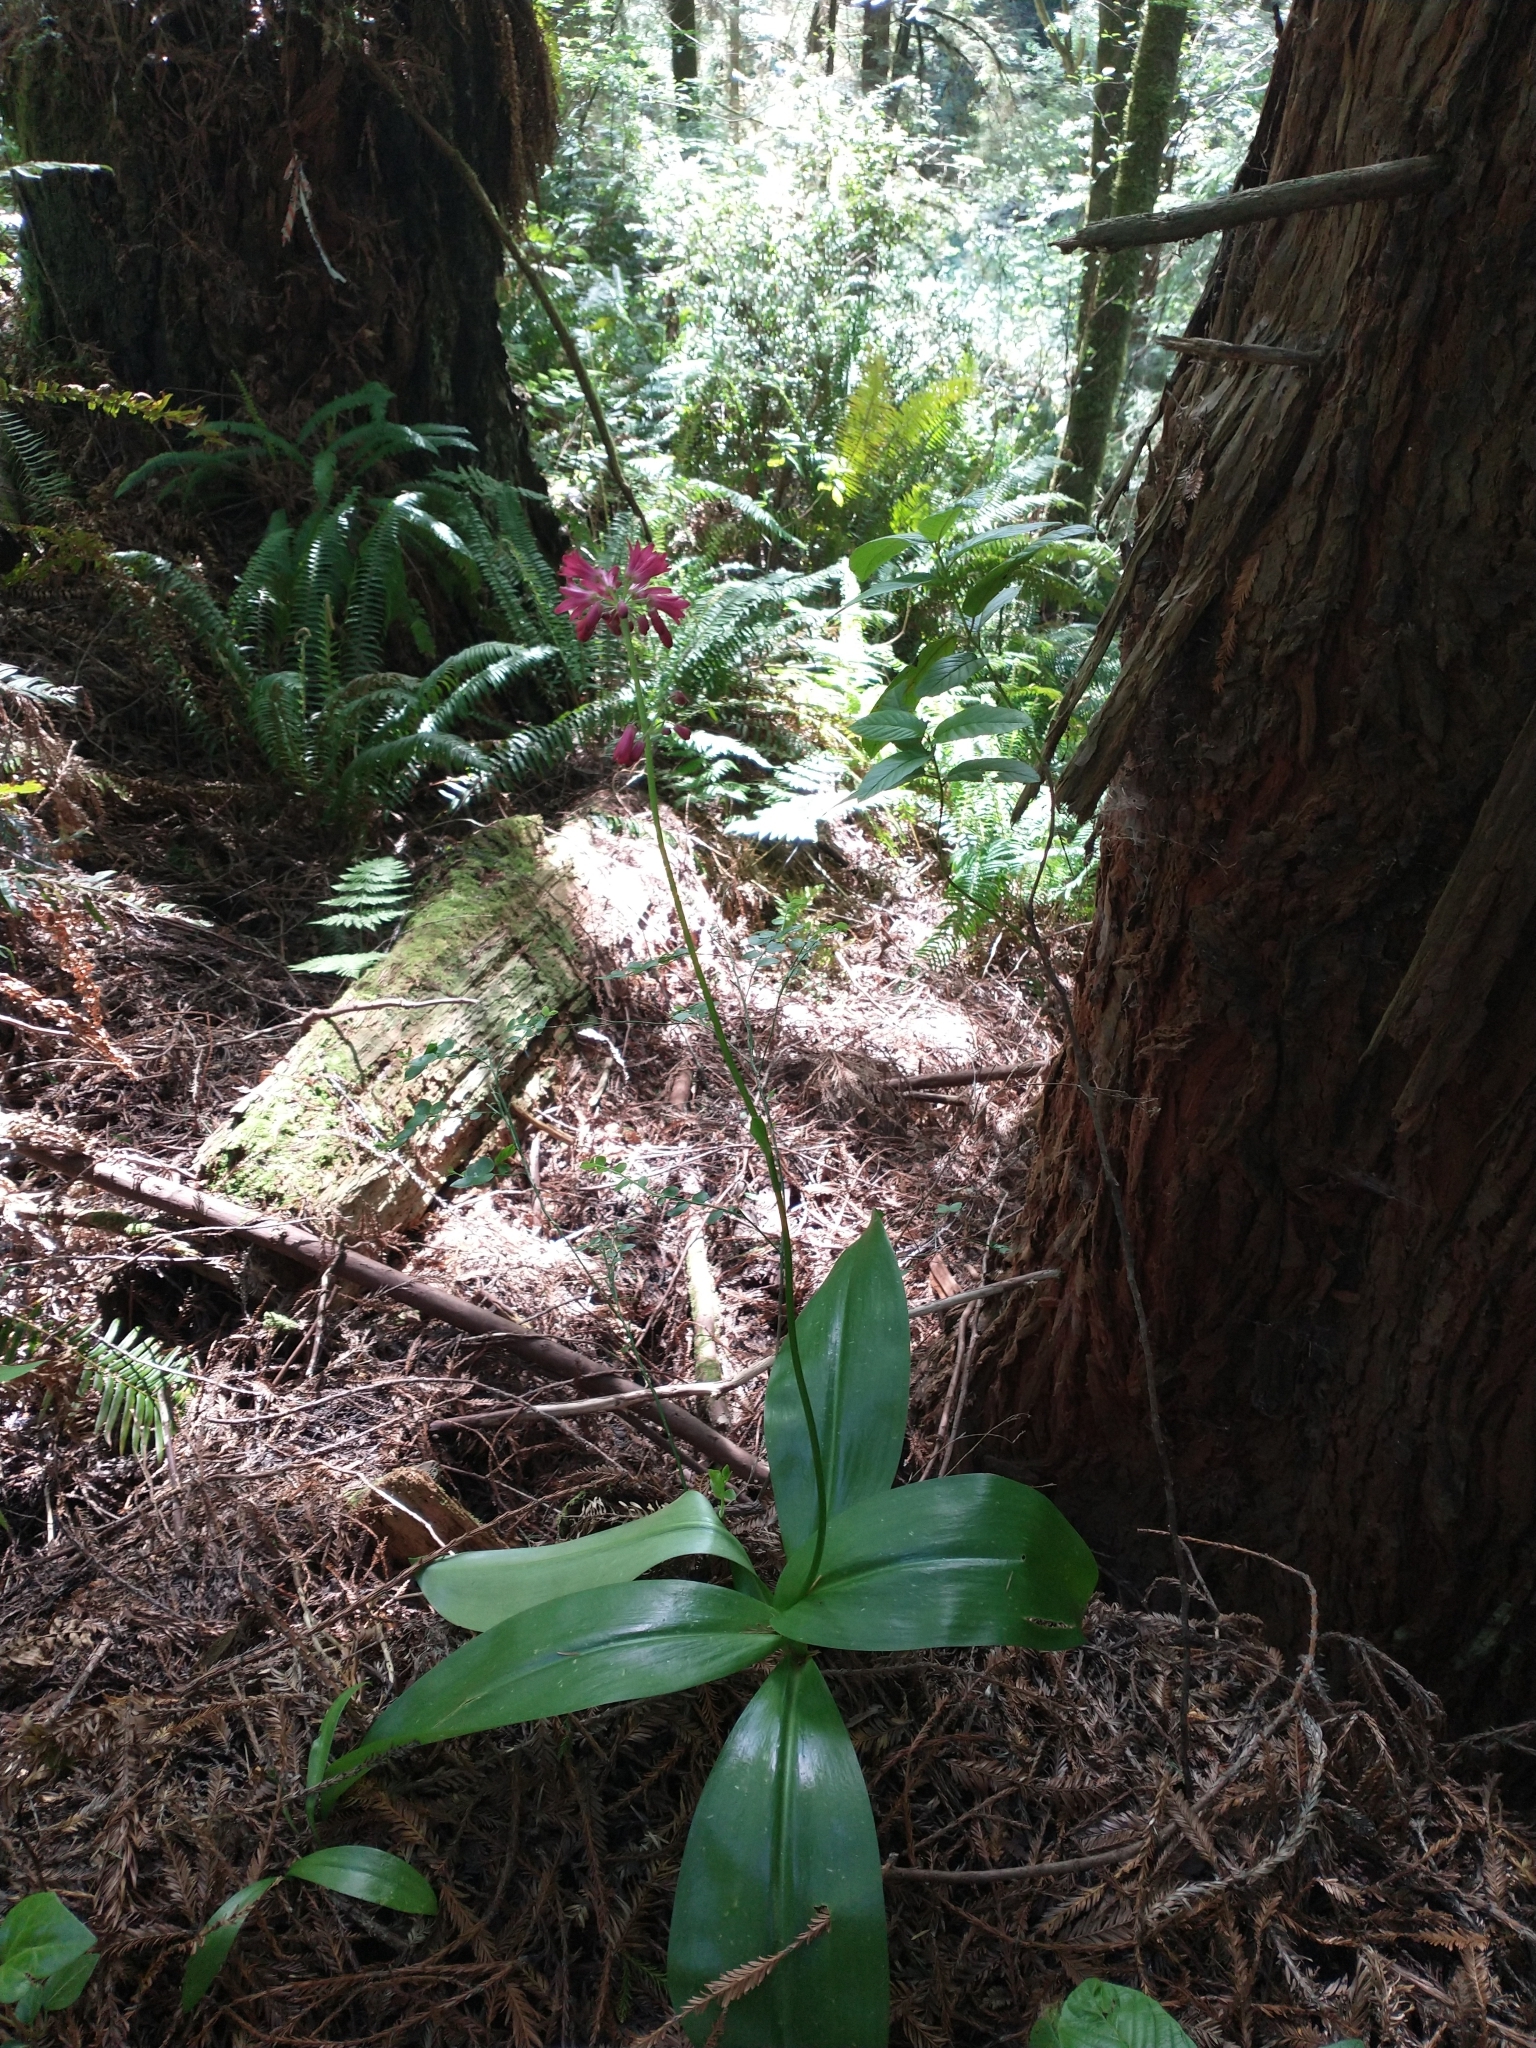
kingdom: Plantae
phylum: Tracheophyta
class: Liliopsida
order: Liliales
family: Liliaceae
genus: Clintonia
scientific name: Clintonia andrewsiana
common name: Red clintonia
